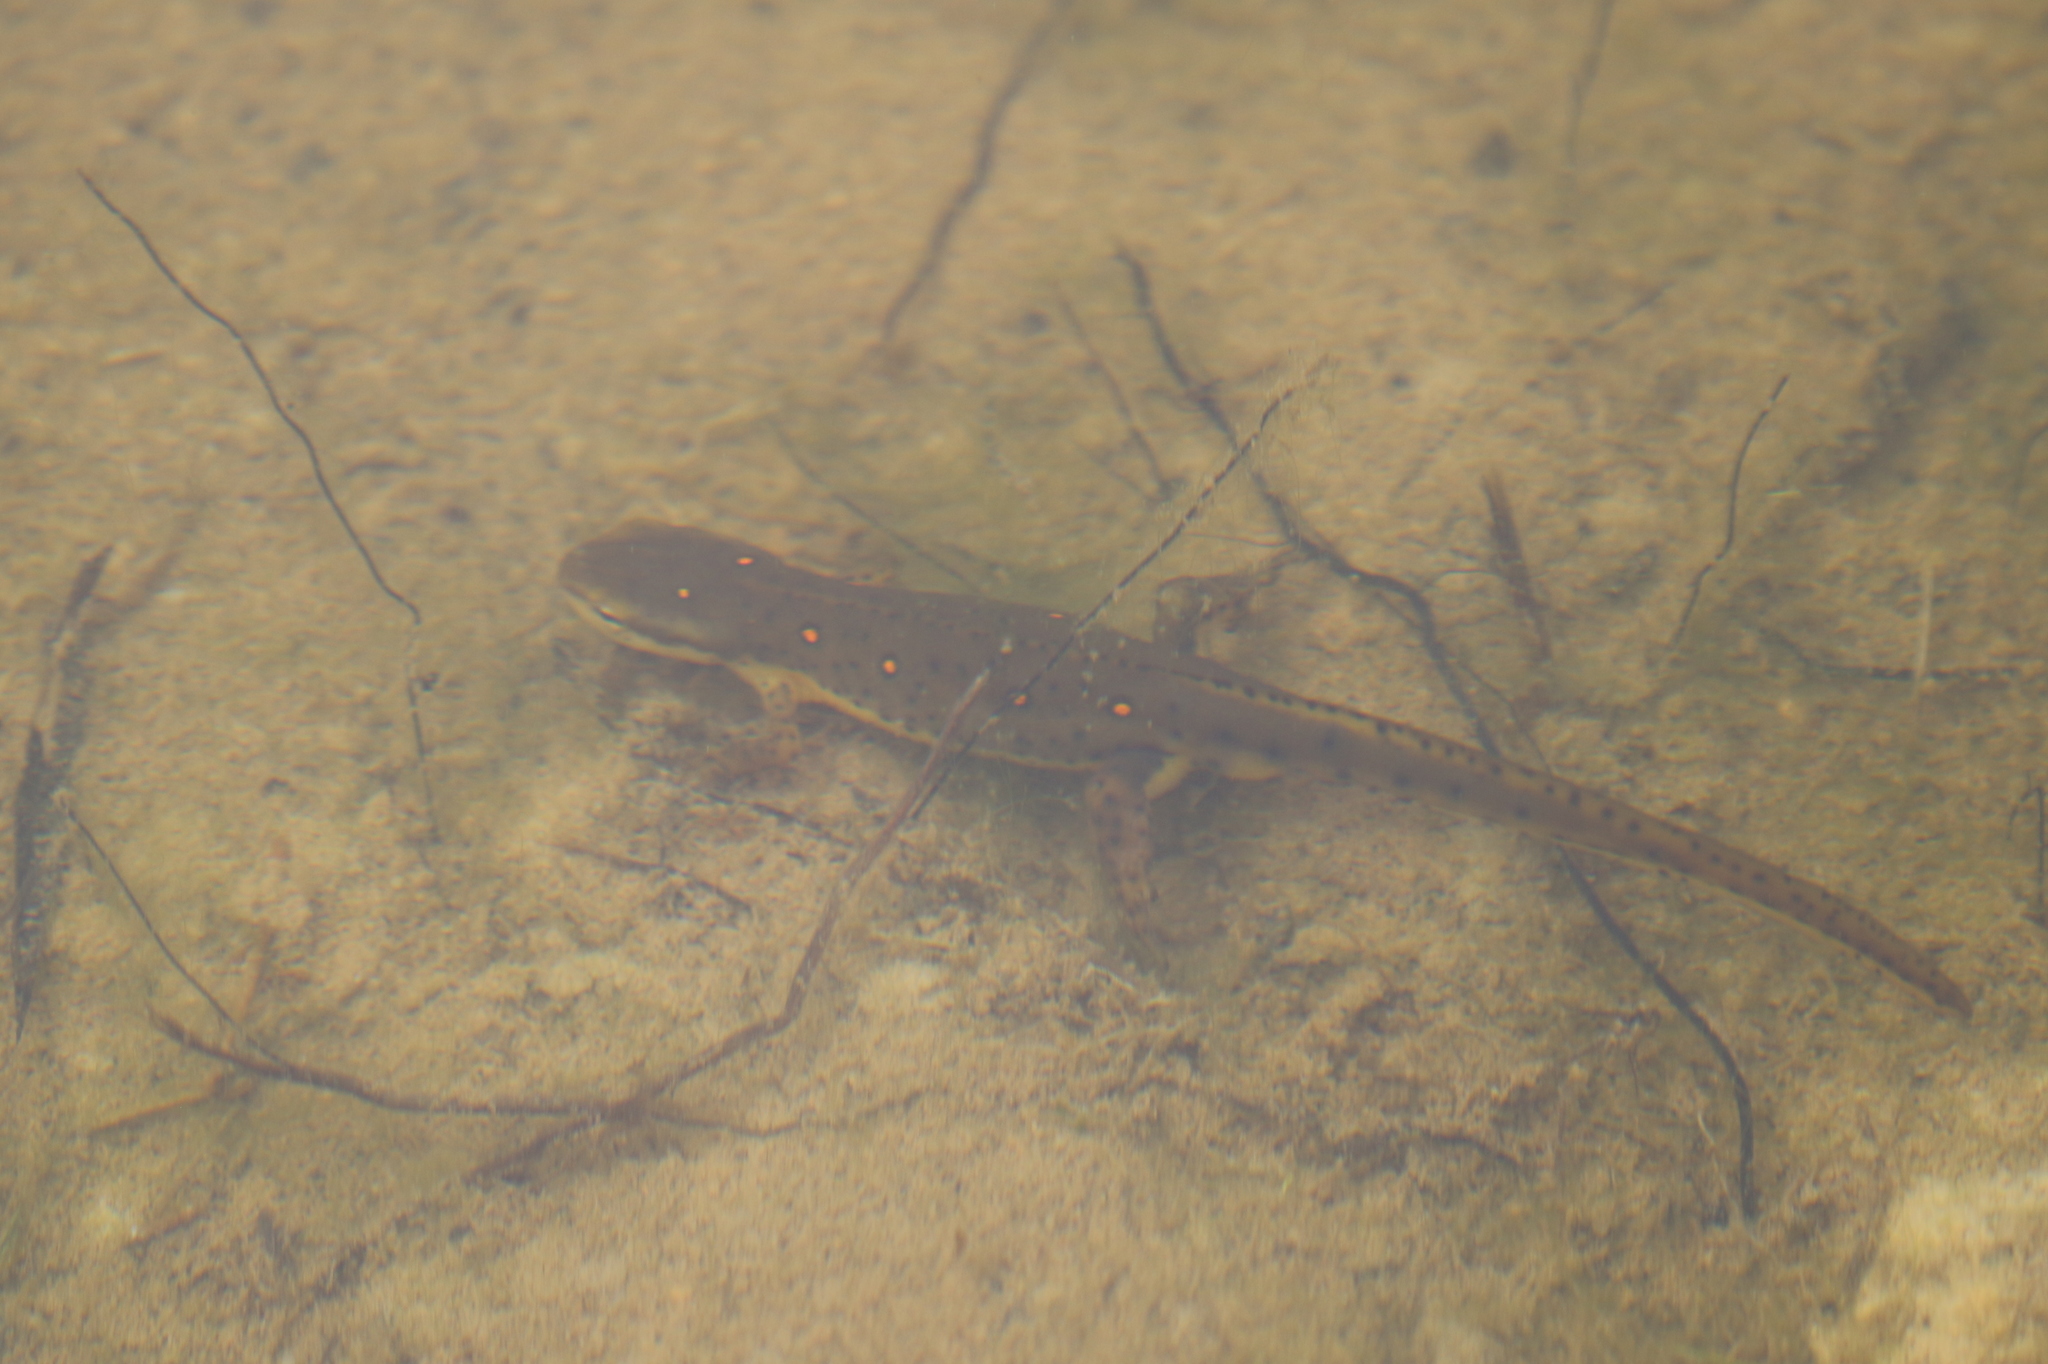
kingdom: Animalia
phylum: Chordata
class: Amphibia
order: Caudata
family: Salamandridae
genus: Notophthalmus
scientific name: Notophthalmus viridescens
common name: Eastern newt
